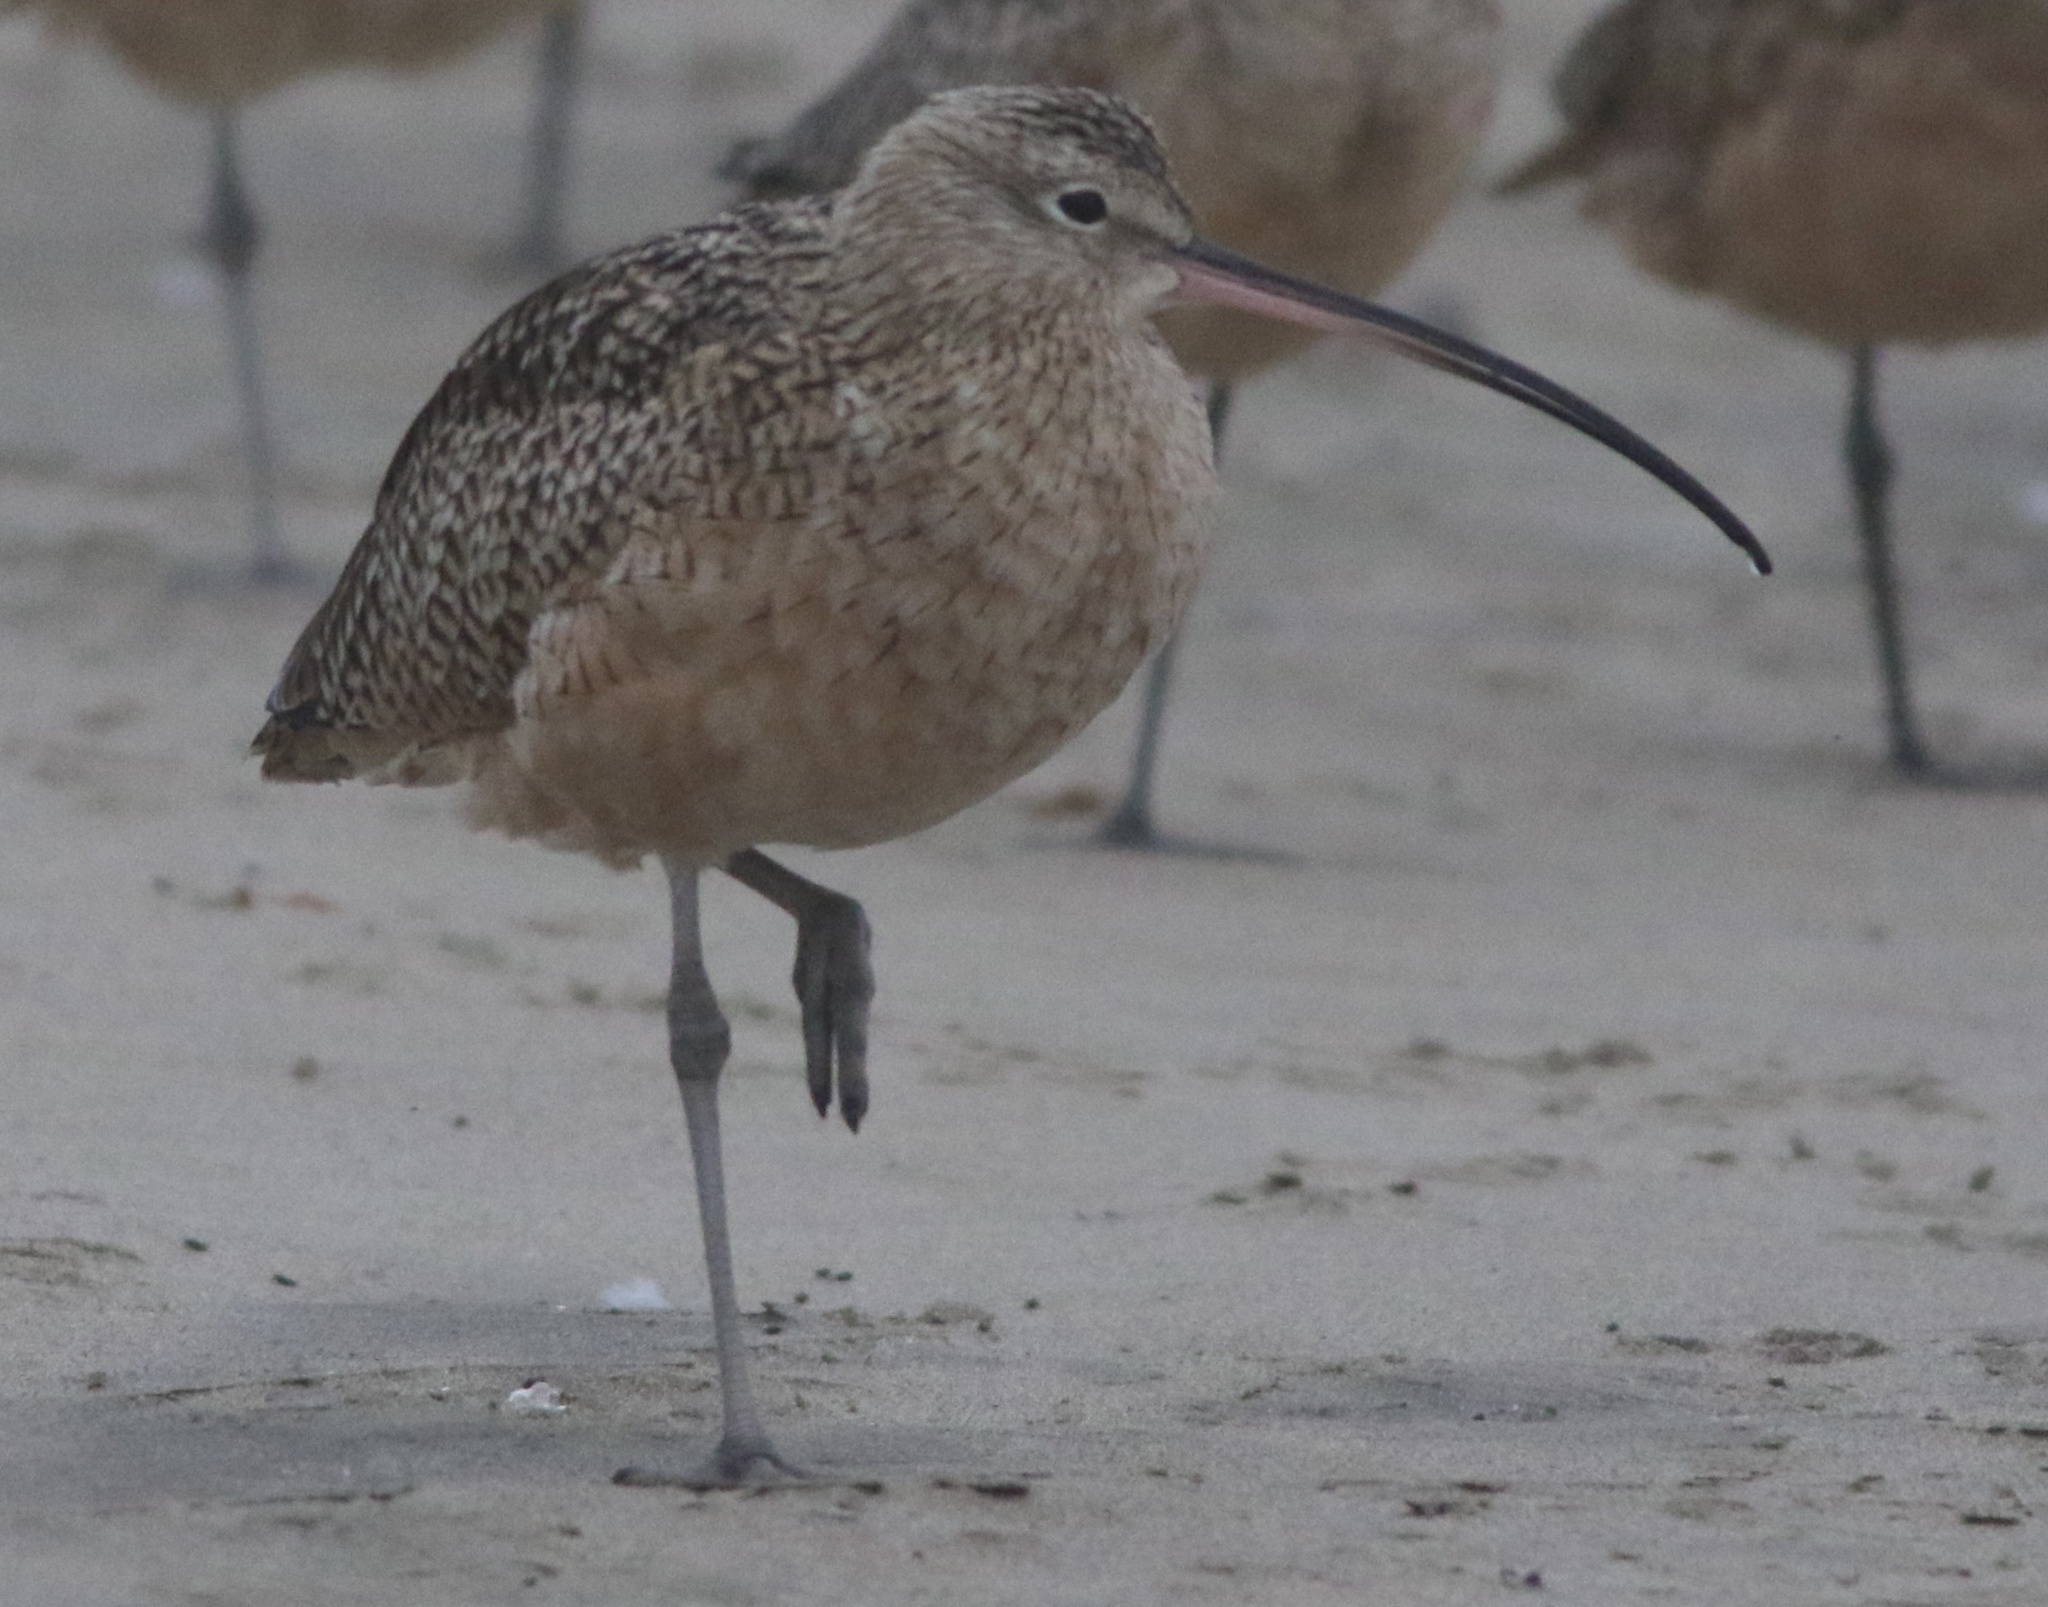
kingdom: Animalia
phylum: Chordata
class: Aves
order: Charadriiformes
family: Scolopacidae
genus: Numenius
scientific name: Numenius americanus
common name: Long-billed curlew
